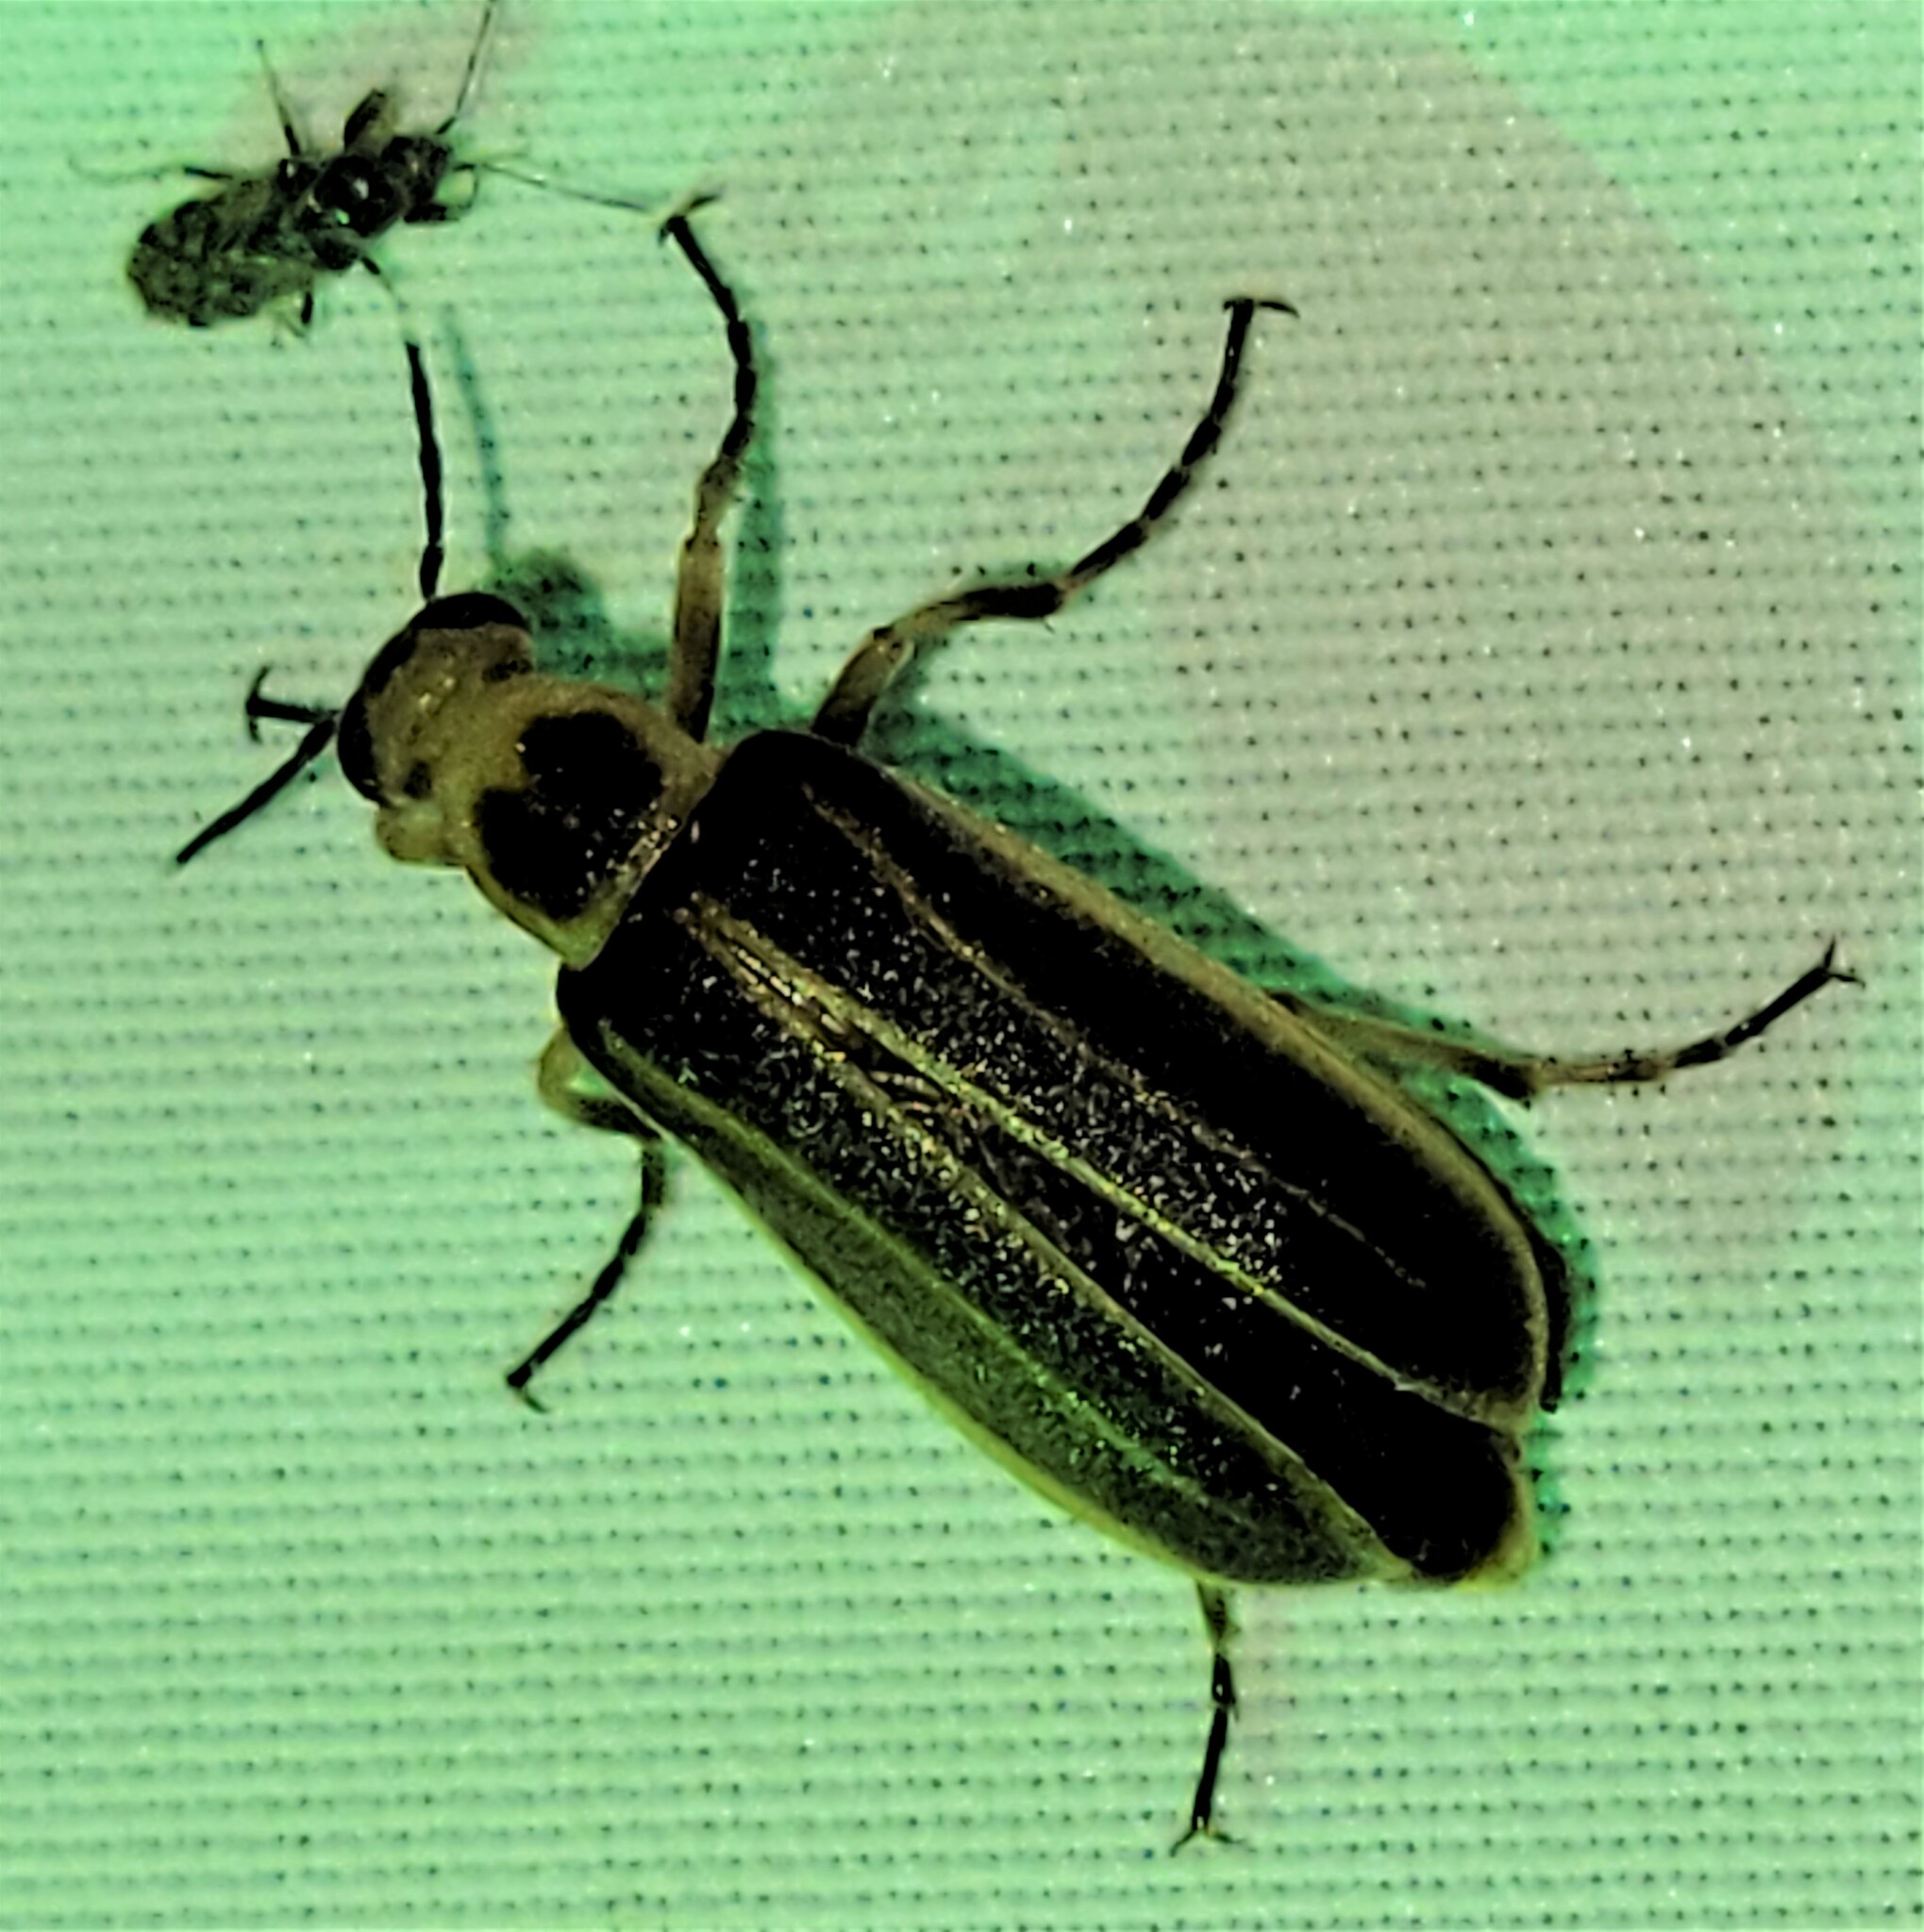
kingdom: Animalia
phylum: Arthropoda
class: Insecta
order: Coleoptera
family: Meloidae
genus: Pseudozonitis
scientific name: Pseudozonitis labialis
